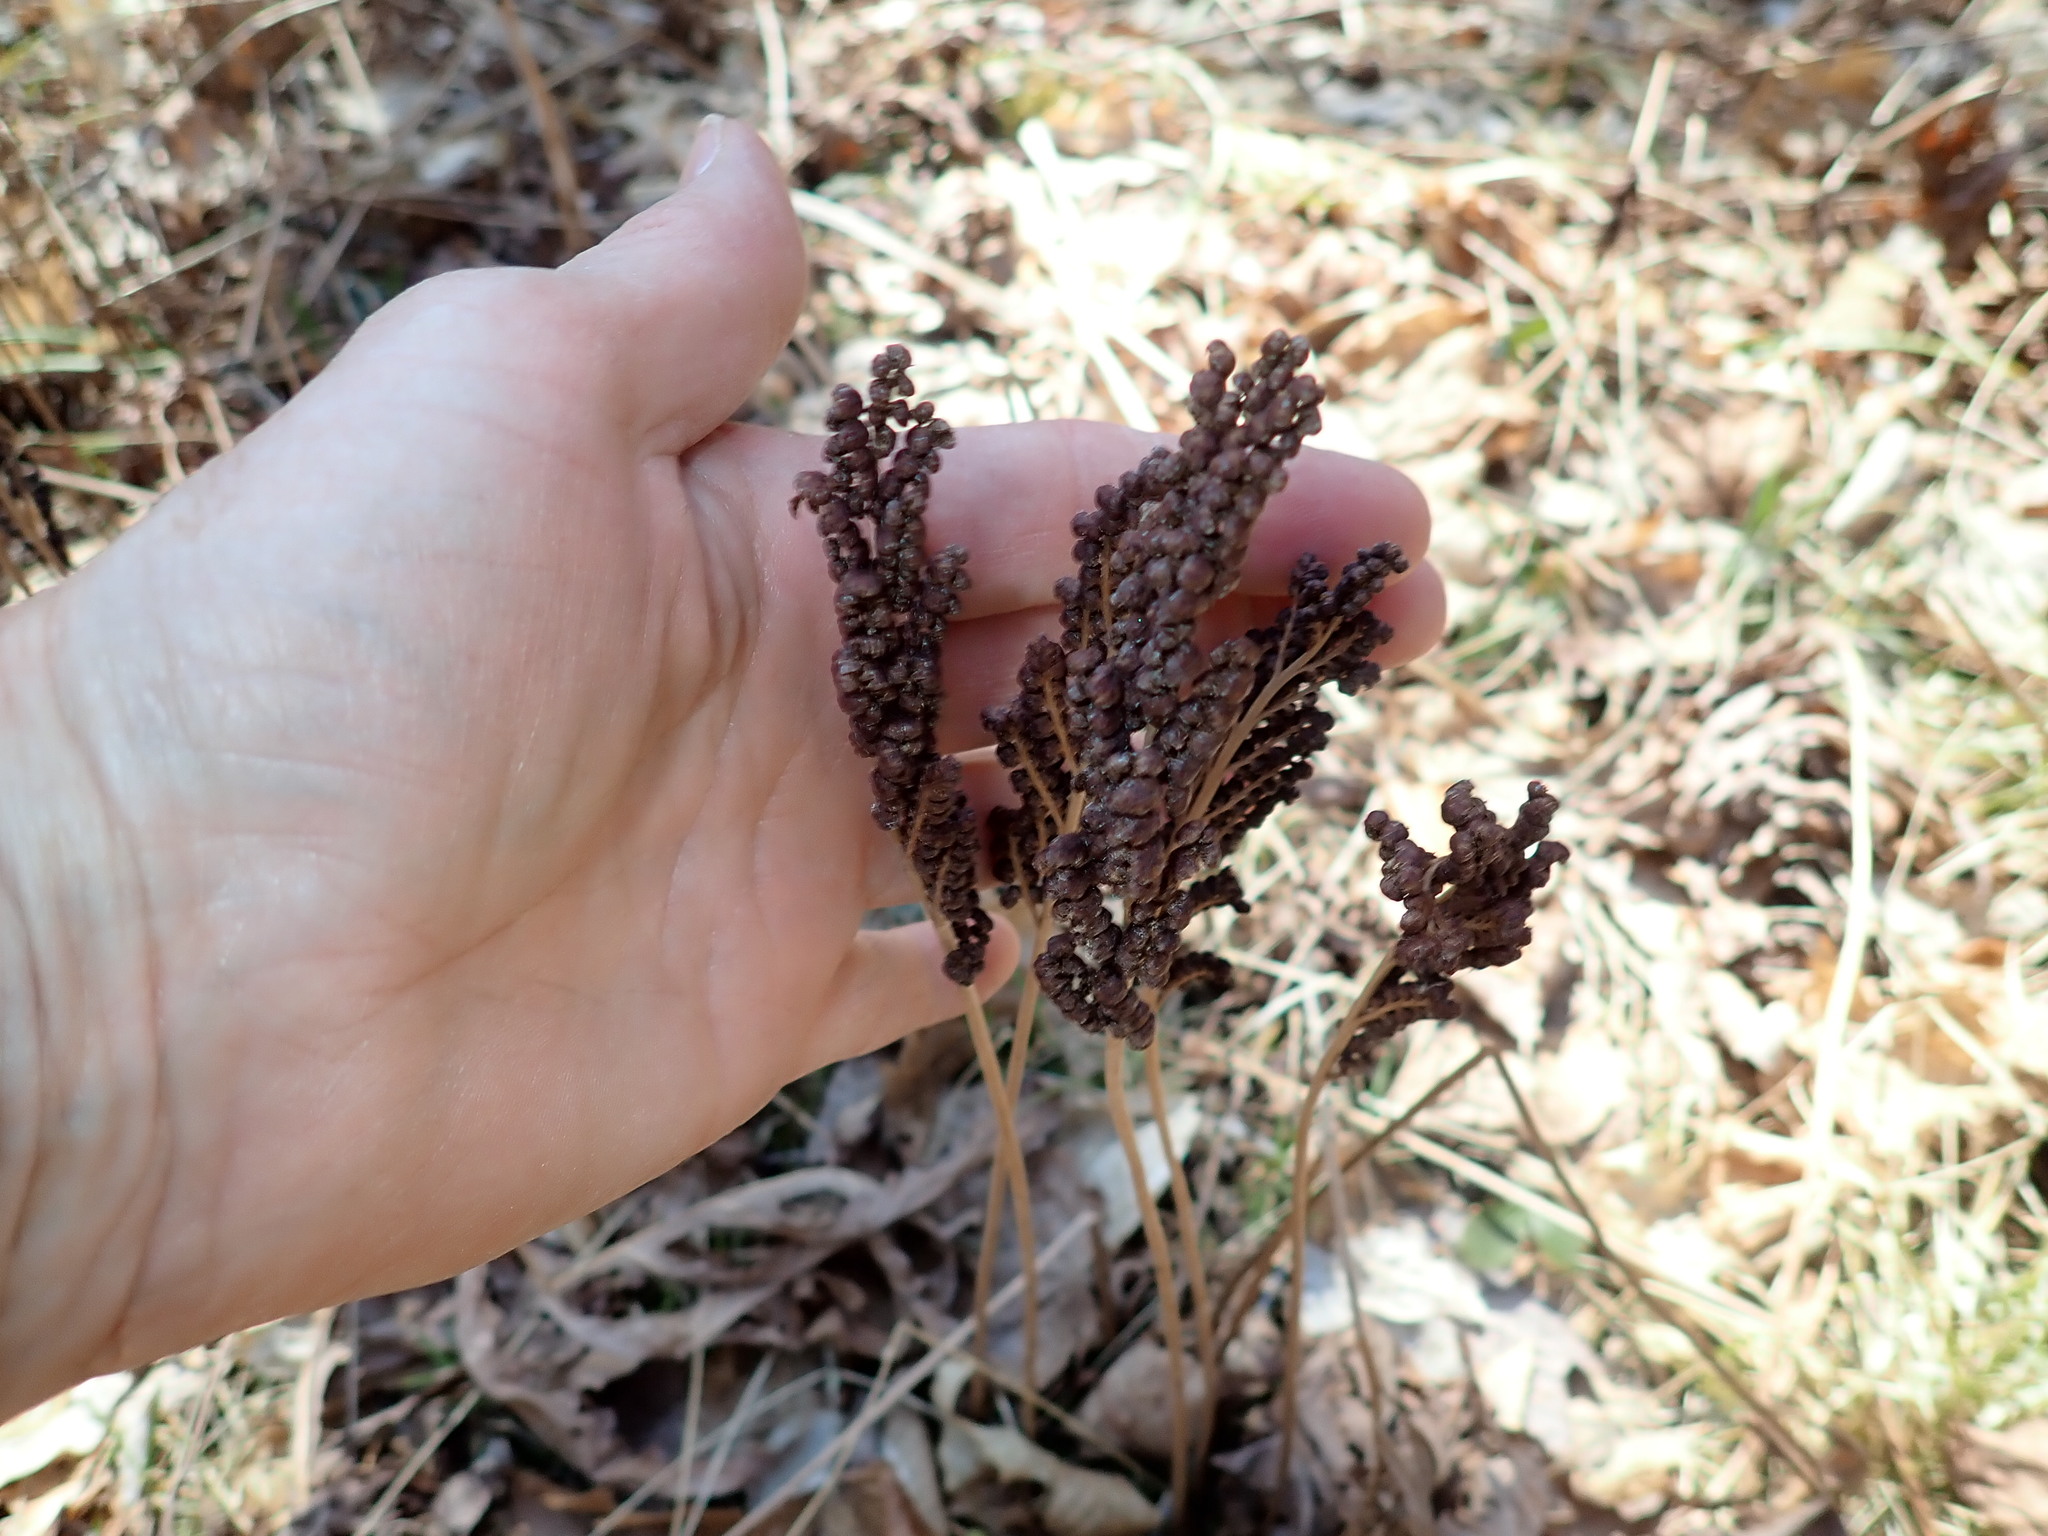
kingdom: Plantae
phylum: Tracheophyta
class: Polypodiopsida
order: Polypodiales
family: Onocleaceae
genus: Onoclea
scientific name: Onoclea sensibilis
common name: Sensitive fern
